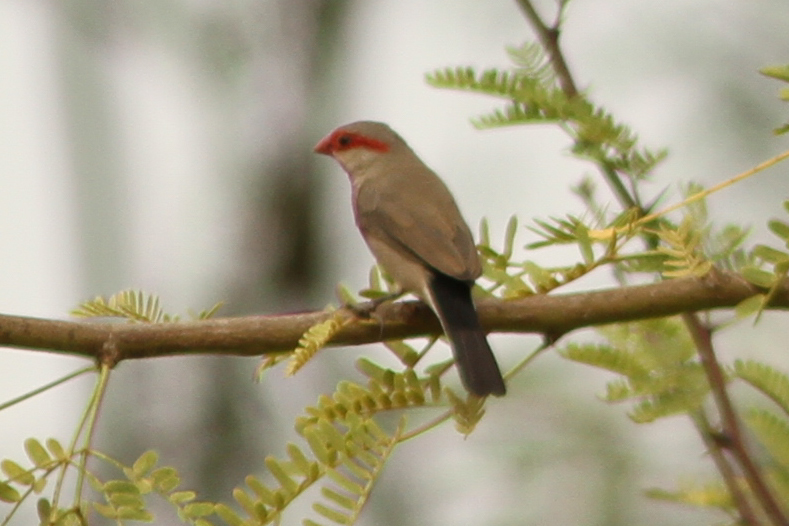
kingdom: Animalia
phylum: Chordata
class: Aves
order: Passeriformes
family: Estrildidae
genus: Estrilda
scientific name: Estrilda troglodytes
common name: Black-rumped waxbill
